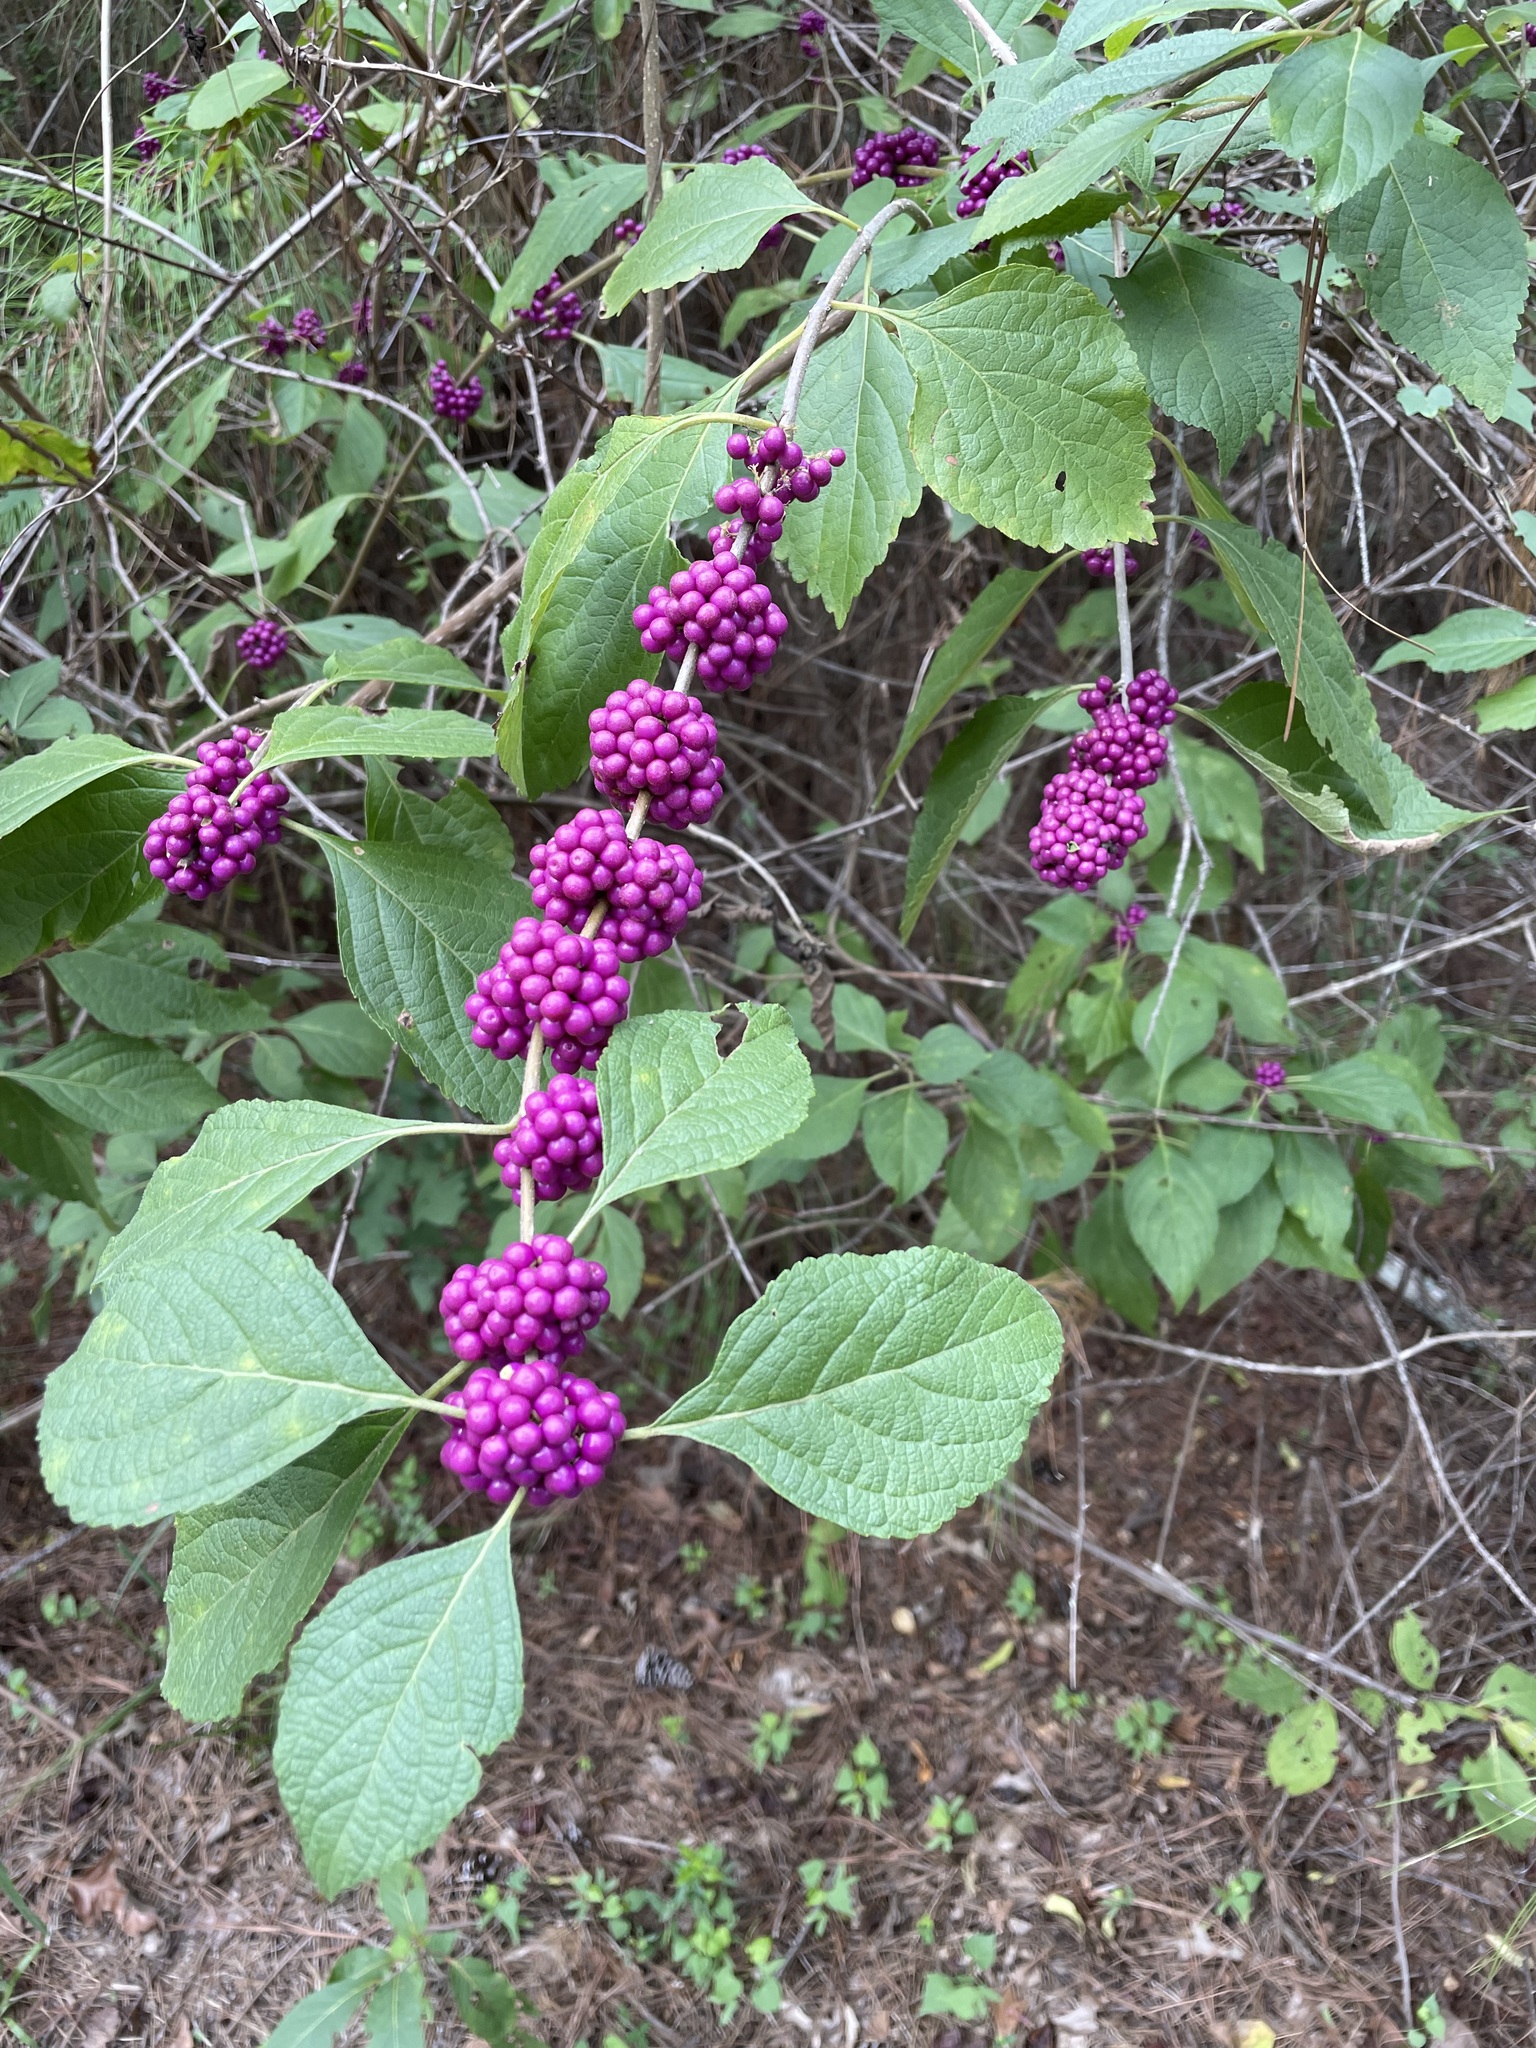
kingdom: Plantae
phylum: Tracheophyta
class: Magnoliopsida
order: Lamiales
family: Lamiaceae
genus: Callicarpa
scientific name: Callicarpa americana
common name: American beautyberry
